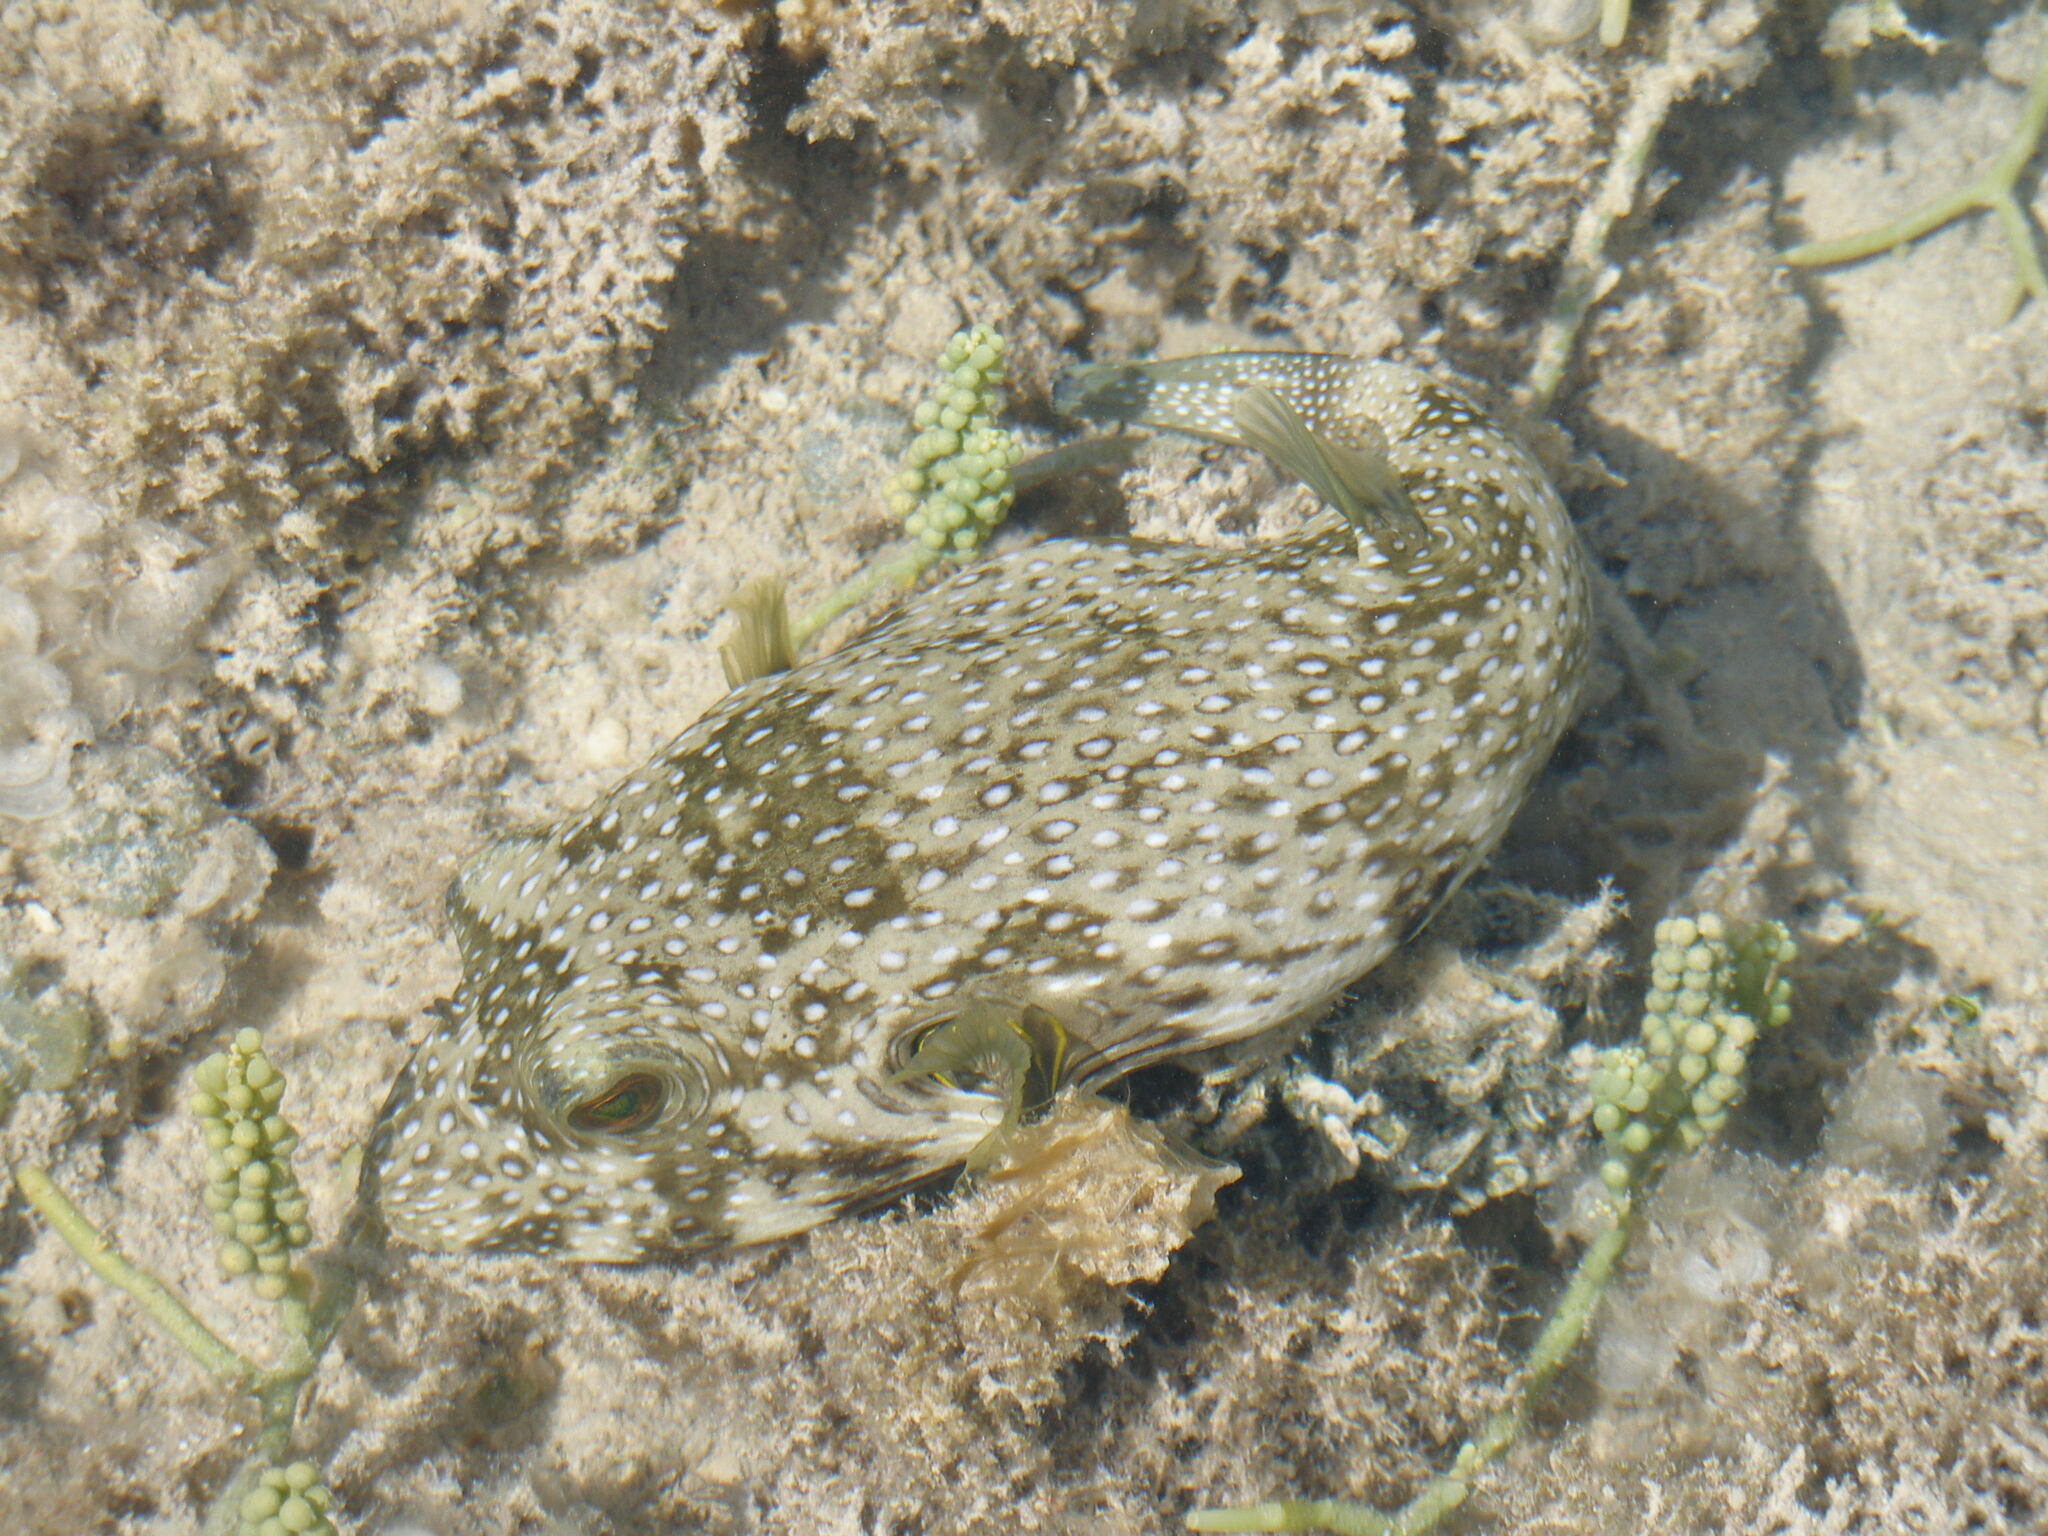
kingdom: Animalia
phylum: Chordata
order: Tetraodontiformes
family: Tetraodontidae
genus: Arothron
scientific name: Arothron hispidus
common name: Stripebelly puffer
